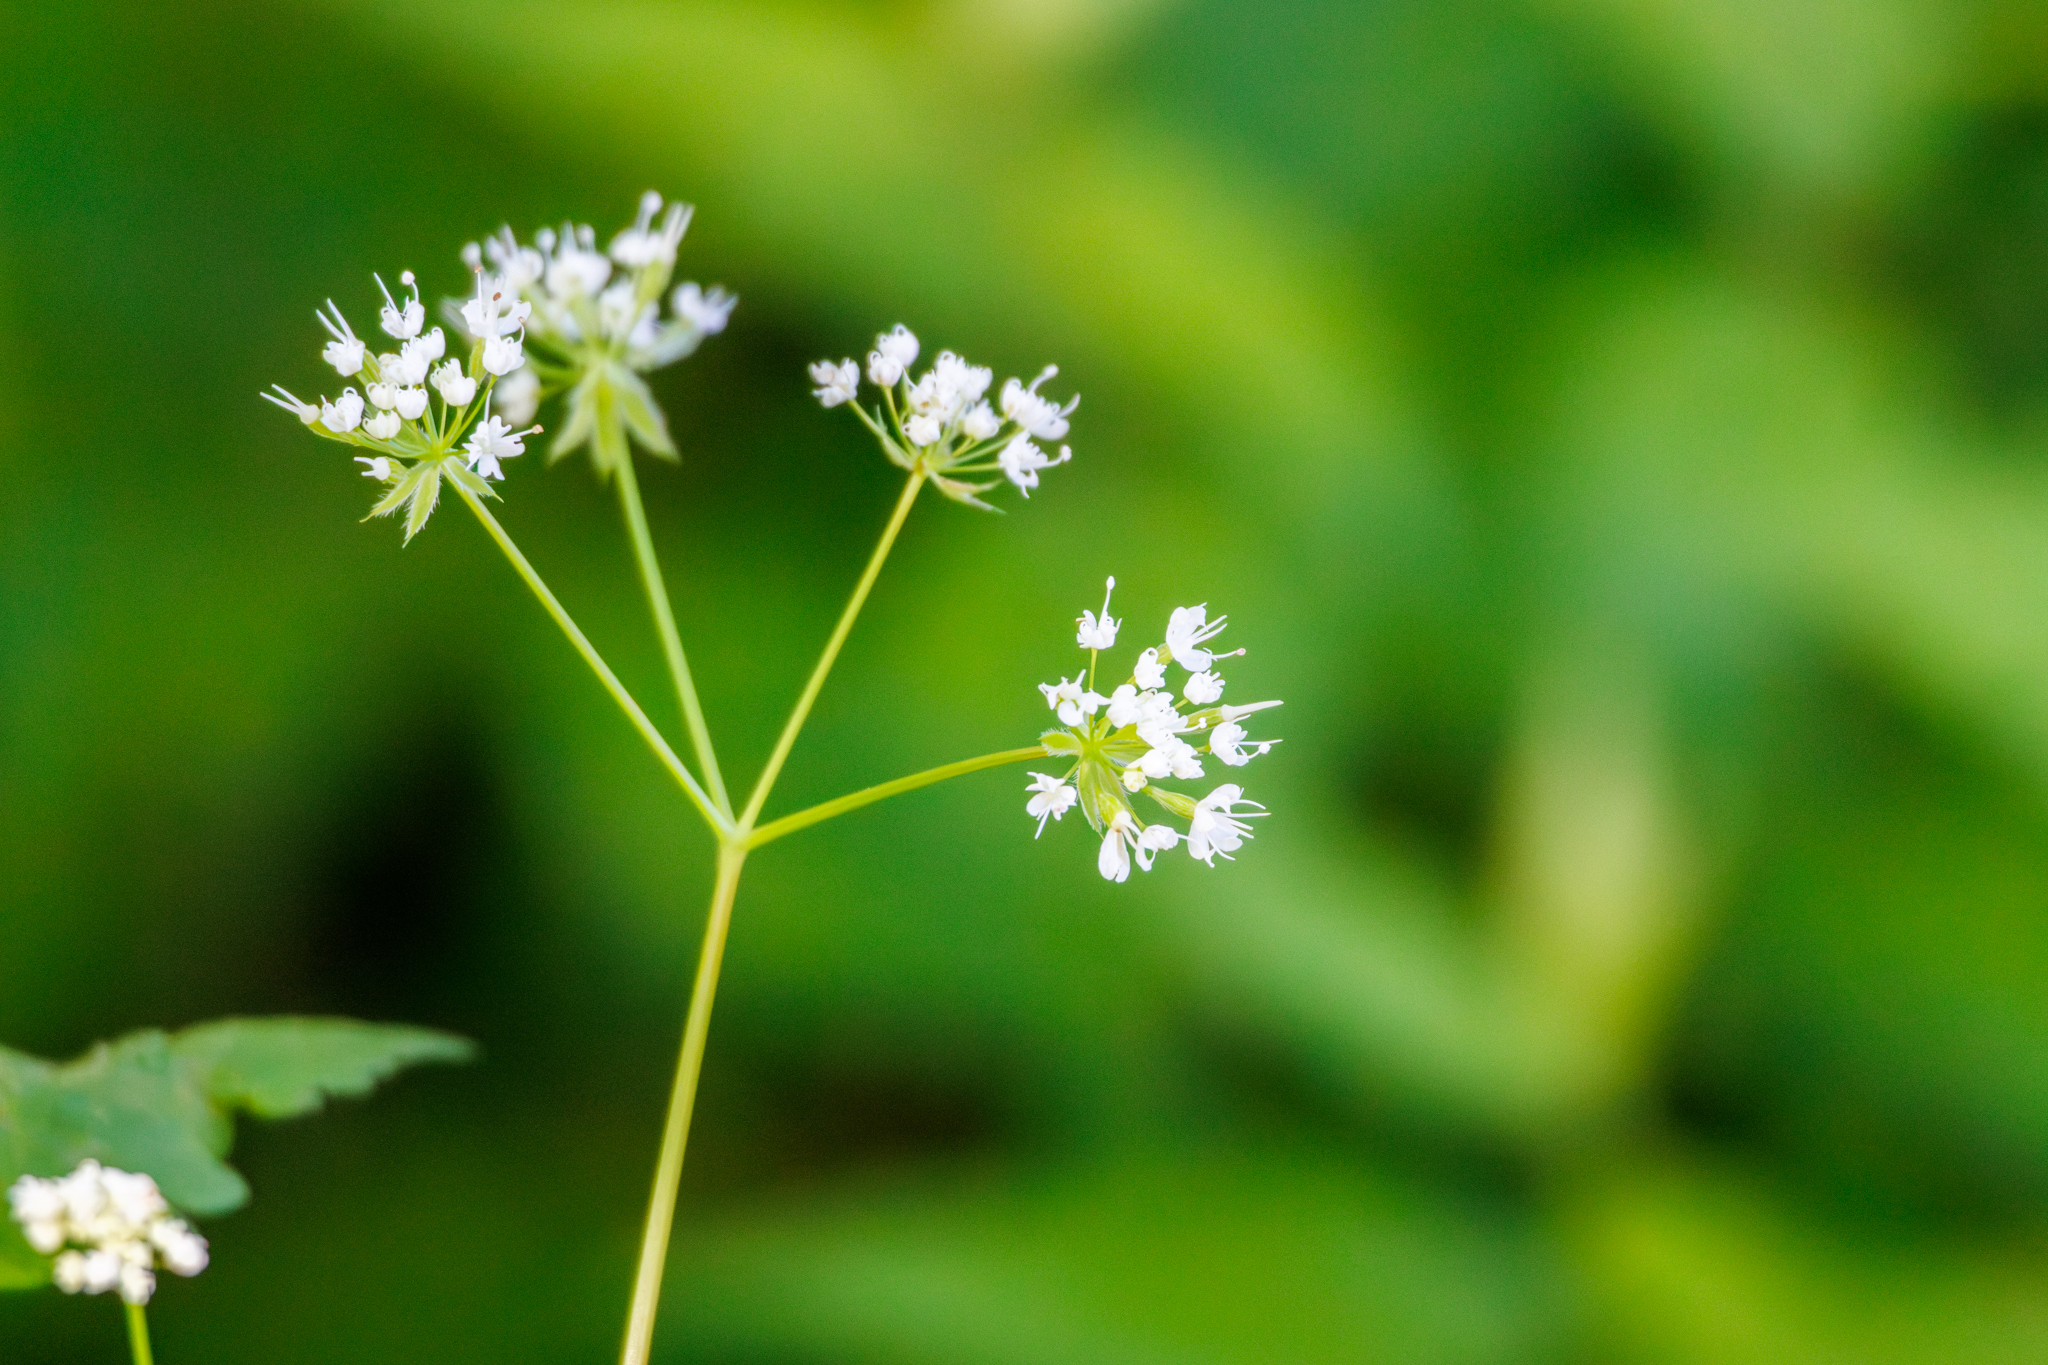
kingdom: Plantae
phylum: Tracheophyta
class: Magnoliopsida
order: Apiales
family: Apiaceae
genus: Osmorhiza
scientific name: Osmorhiza longistylis
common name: Smooth sweet cicely
